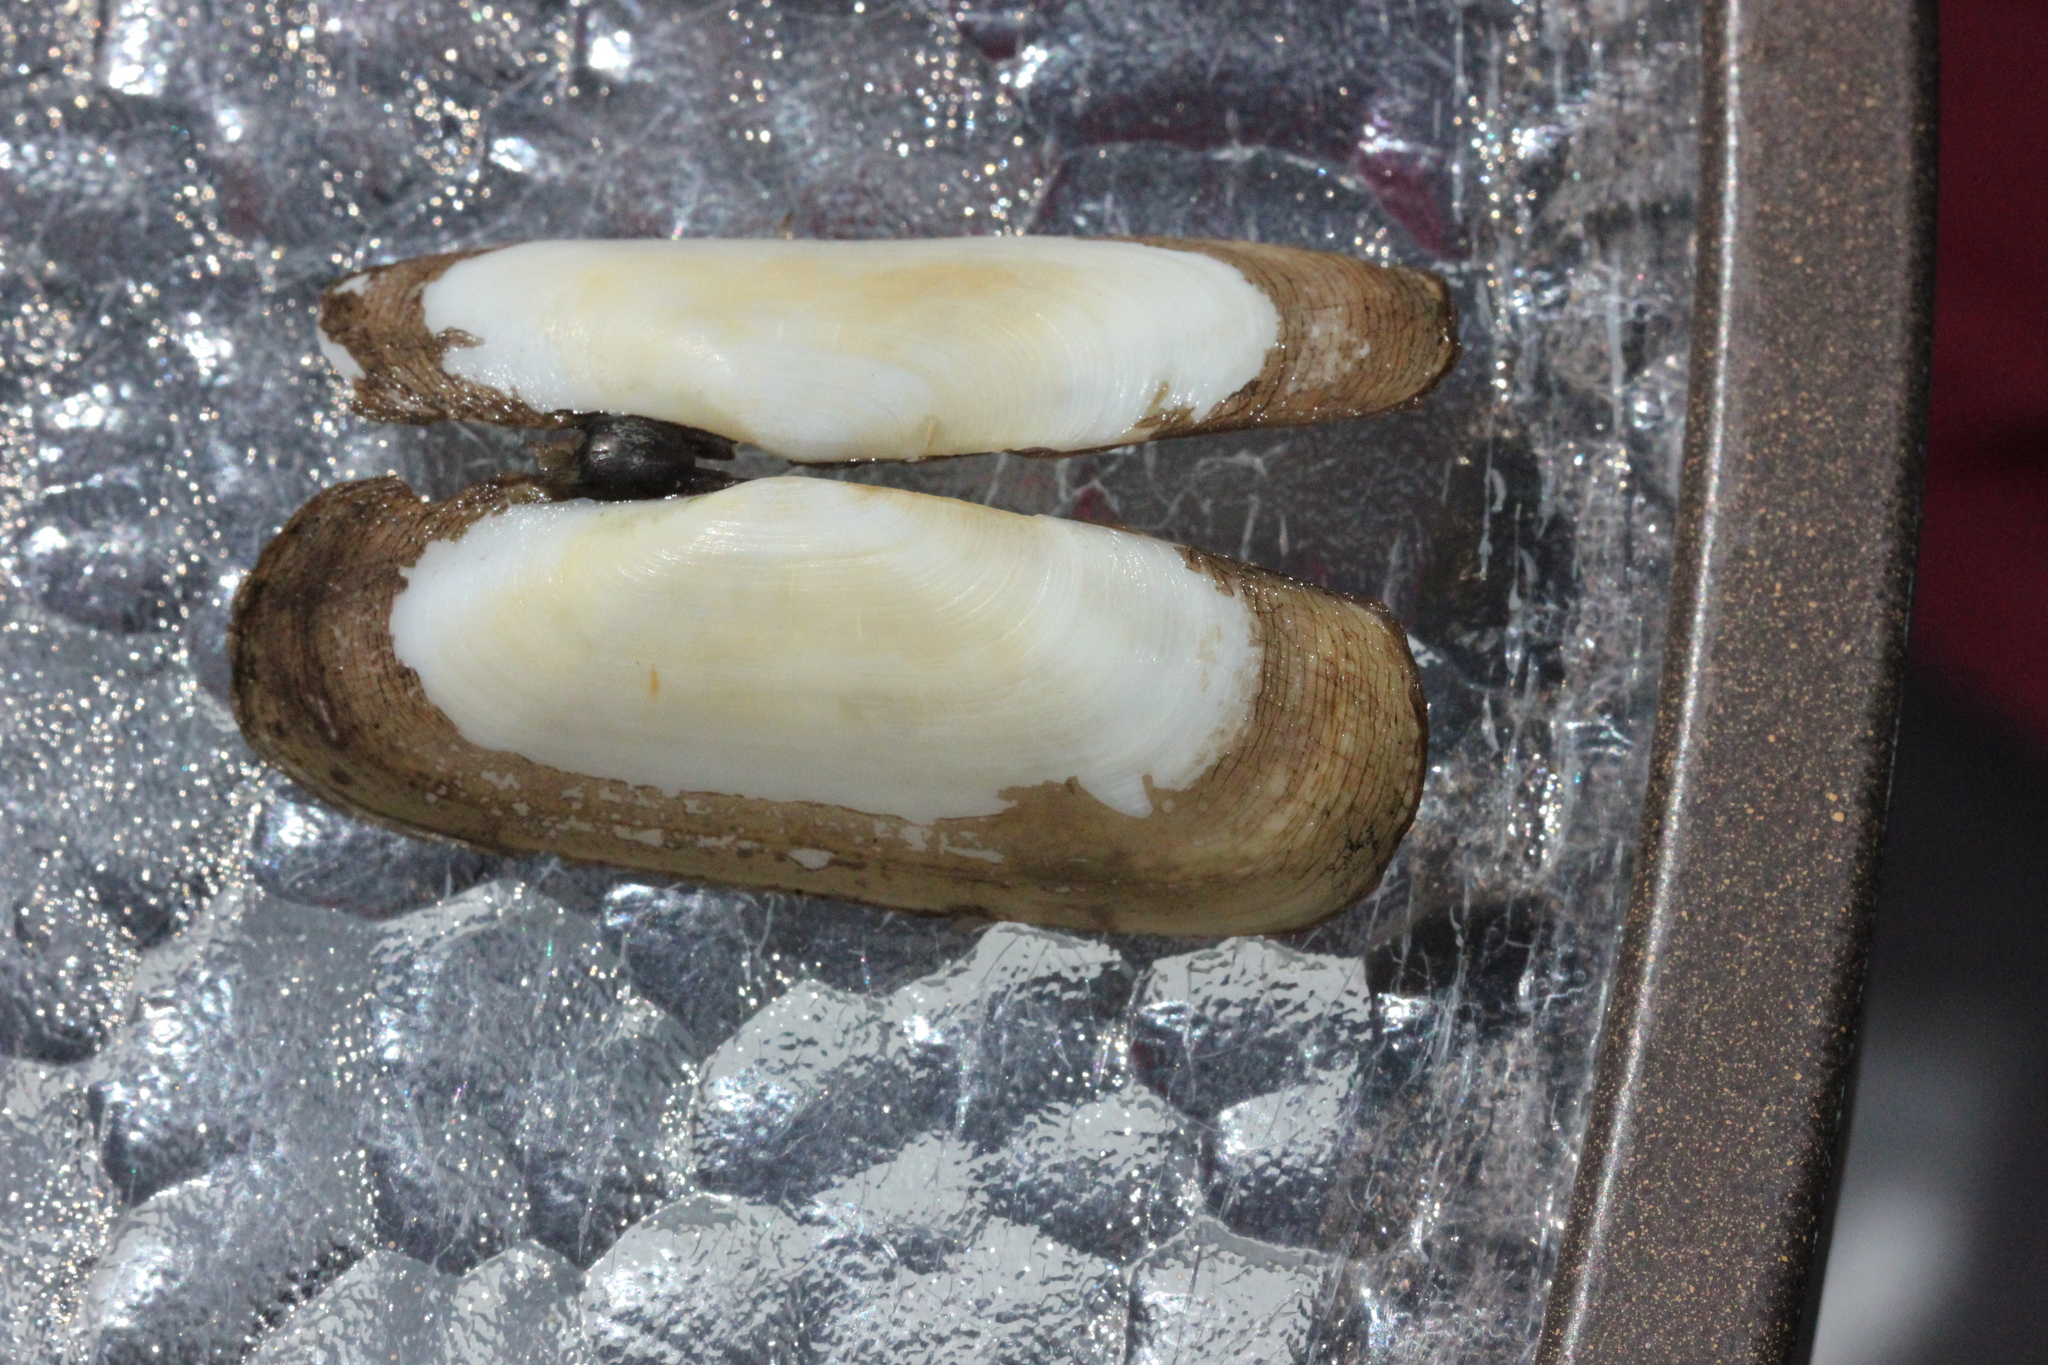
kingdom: Animalia
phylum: Mollusca
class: Bivalvia
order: Cardiida
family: Solecurtidae
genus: Tagelus
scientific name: Tagelus plebeius
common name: Stout tagelus
